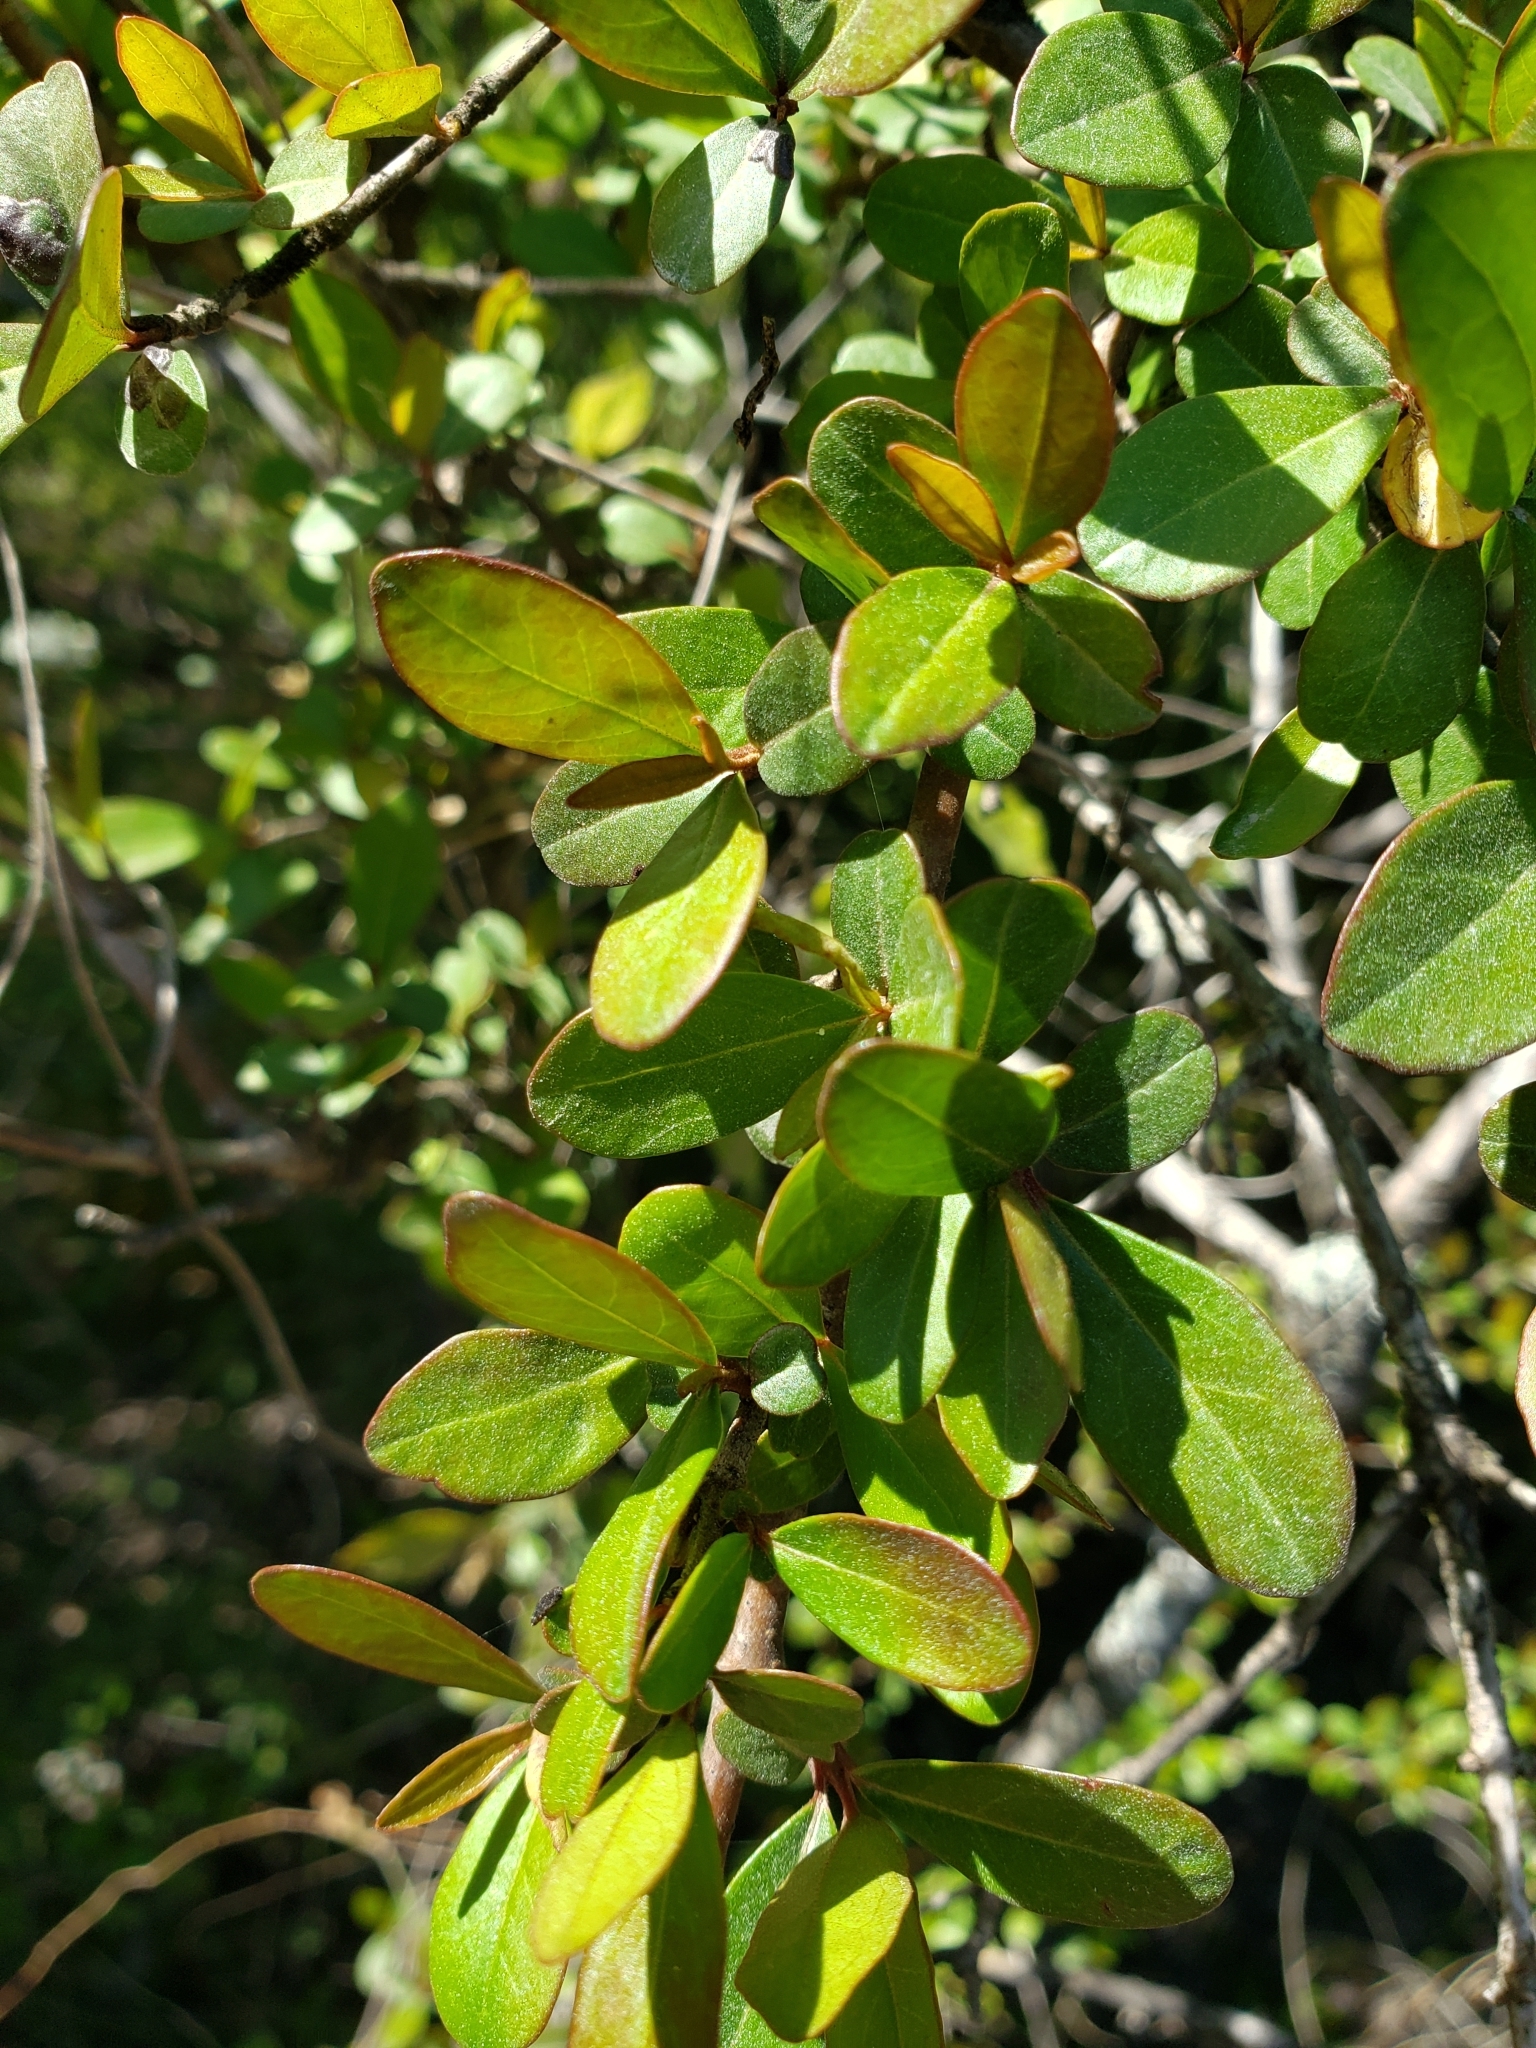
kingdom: Plantae
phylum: Tracheophyta
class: Magnoliopsida
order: Dipsacales
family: Viburnaceae
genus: Viburnum
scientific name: Viburnum obovatum
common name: Walter's viburnum
